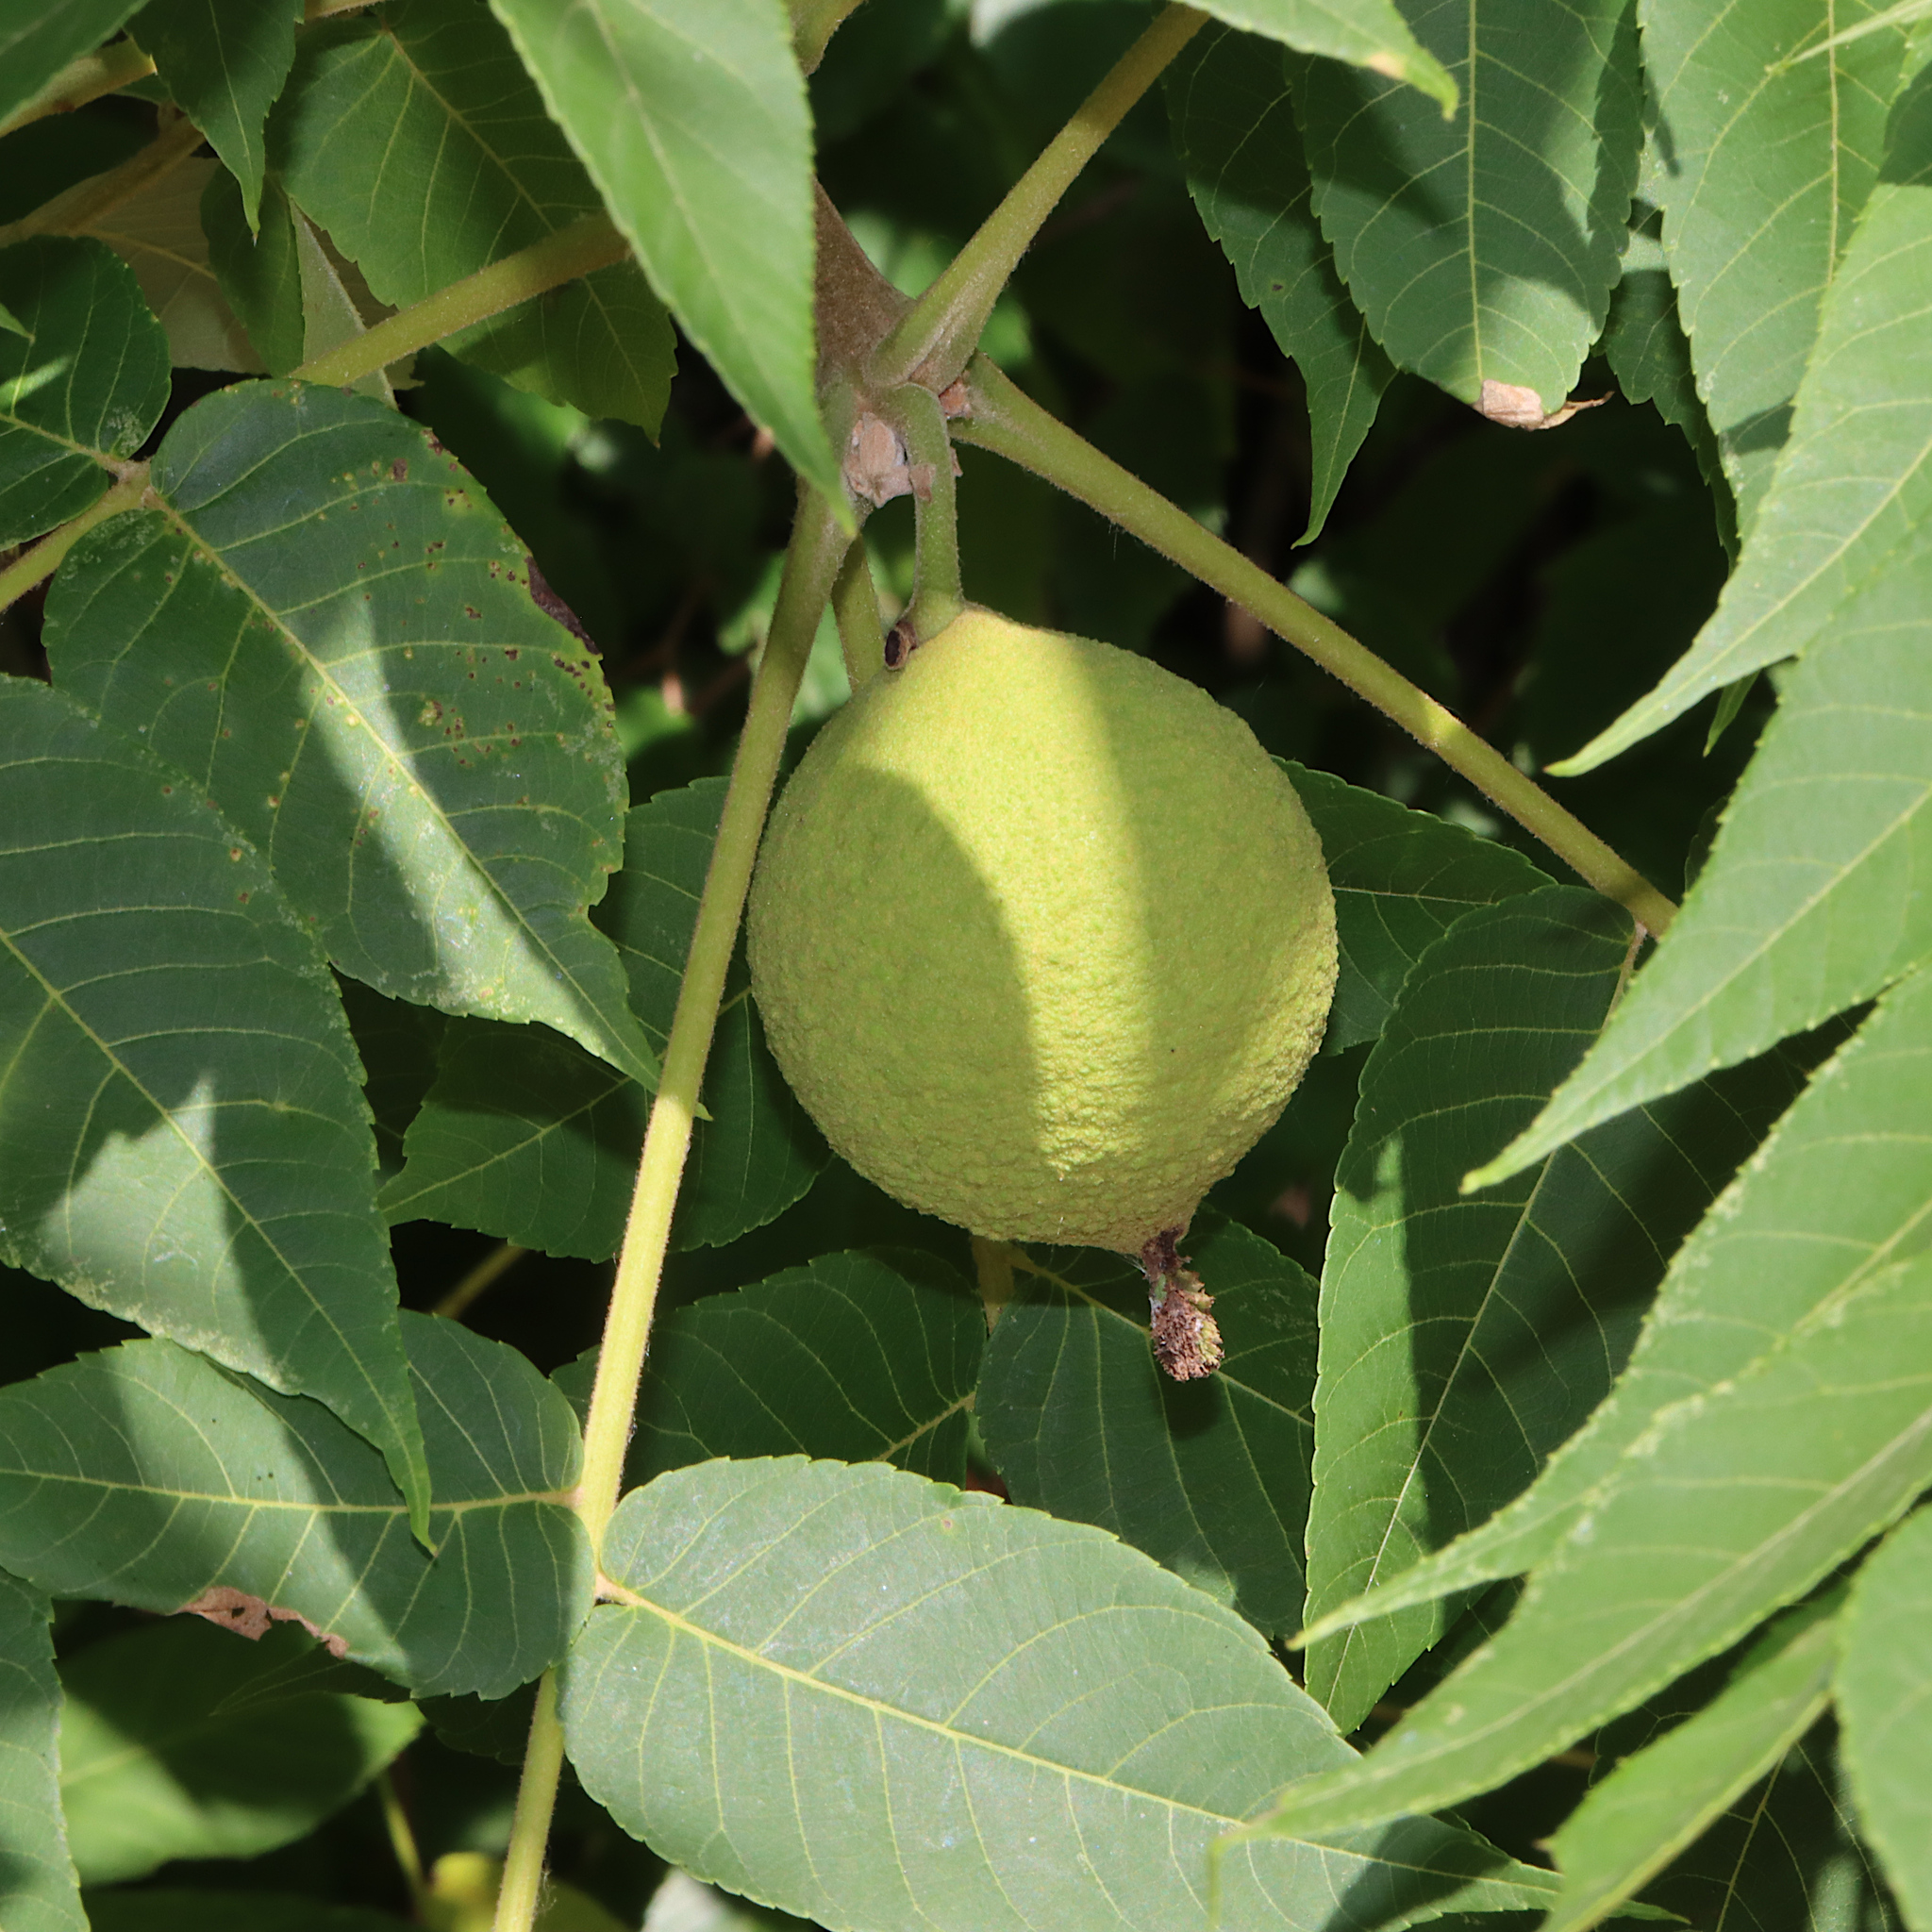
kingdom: Plantae
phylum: Tracheophyta
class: Magnoliopsida
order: Fagales
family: Juglandaceae
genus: Juglans
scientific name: Juglans nigra
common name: Black walnut
